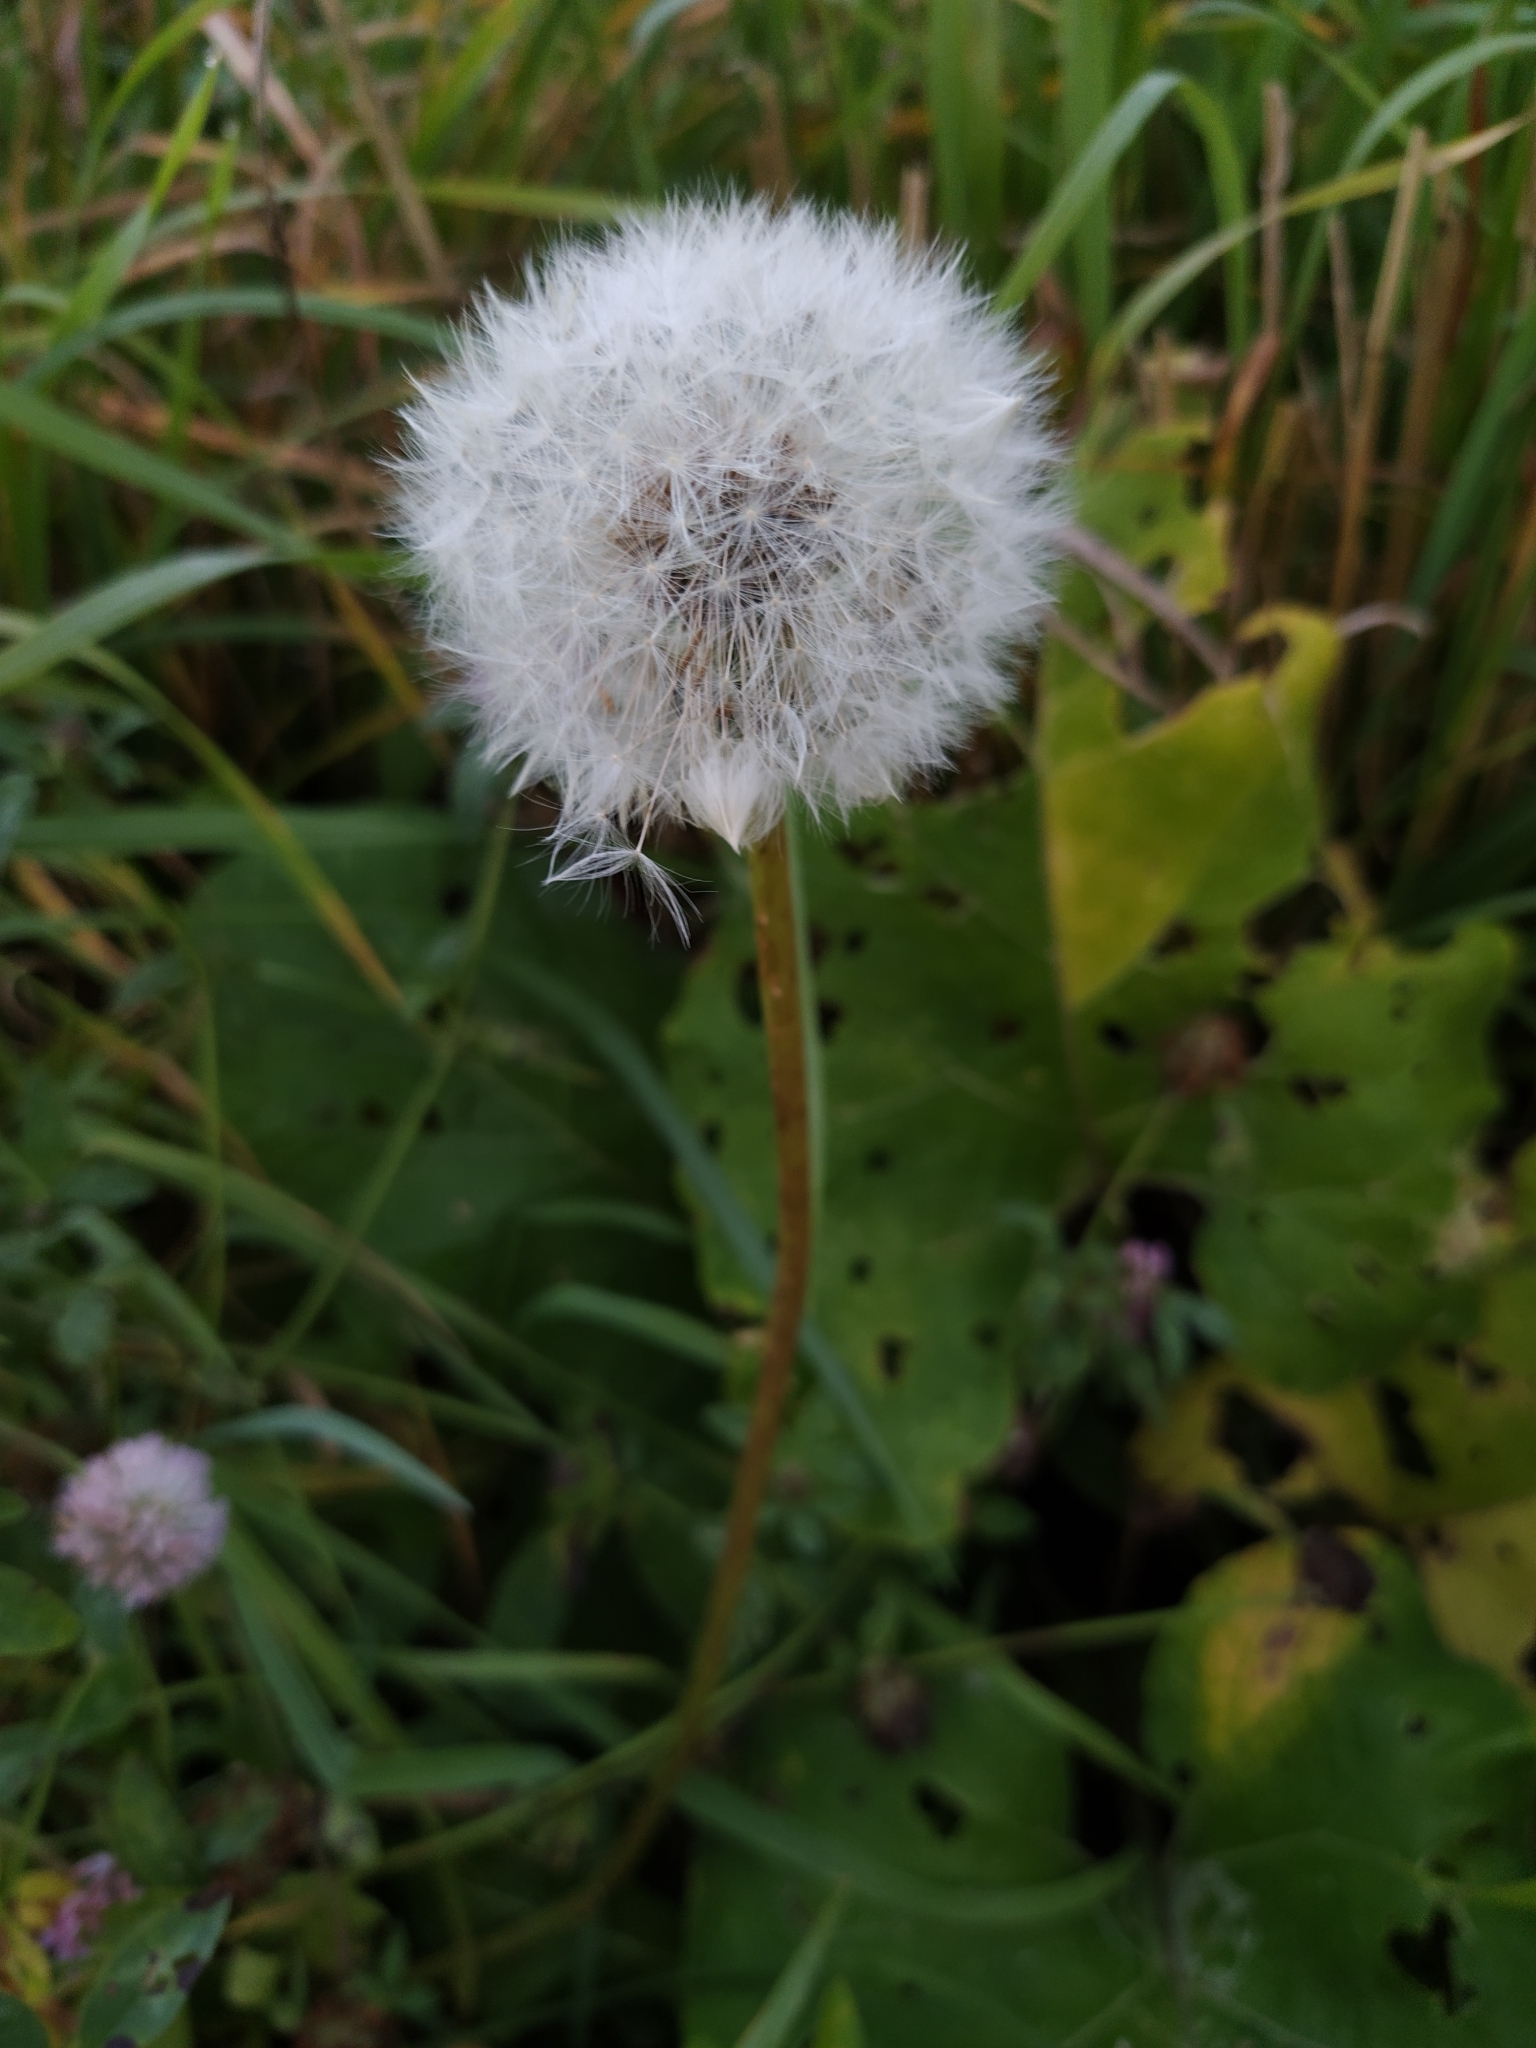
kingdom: Plantae
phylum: Tracheophyta
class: Magnoliopsida
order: Asterales
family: Asteraceae
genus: Taraxacum
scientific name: Taraxacum officinale
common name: Common dandelion
